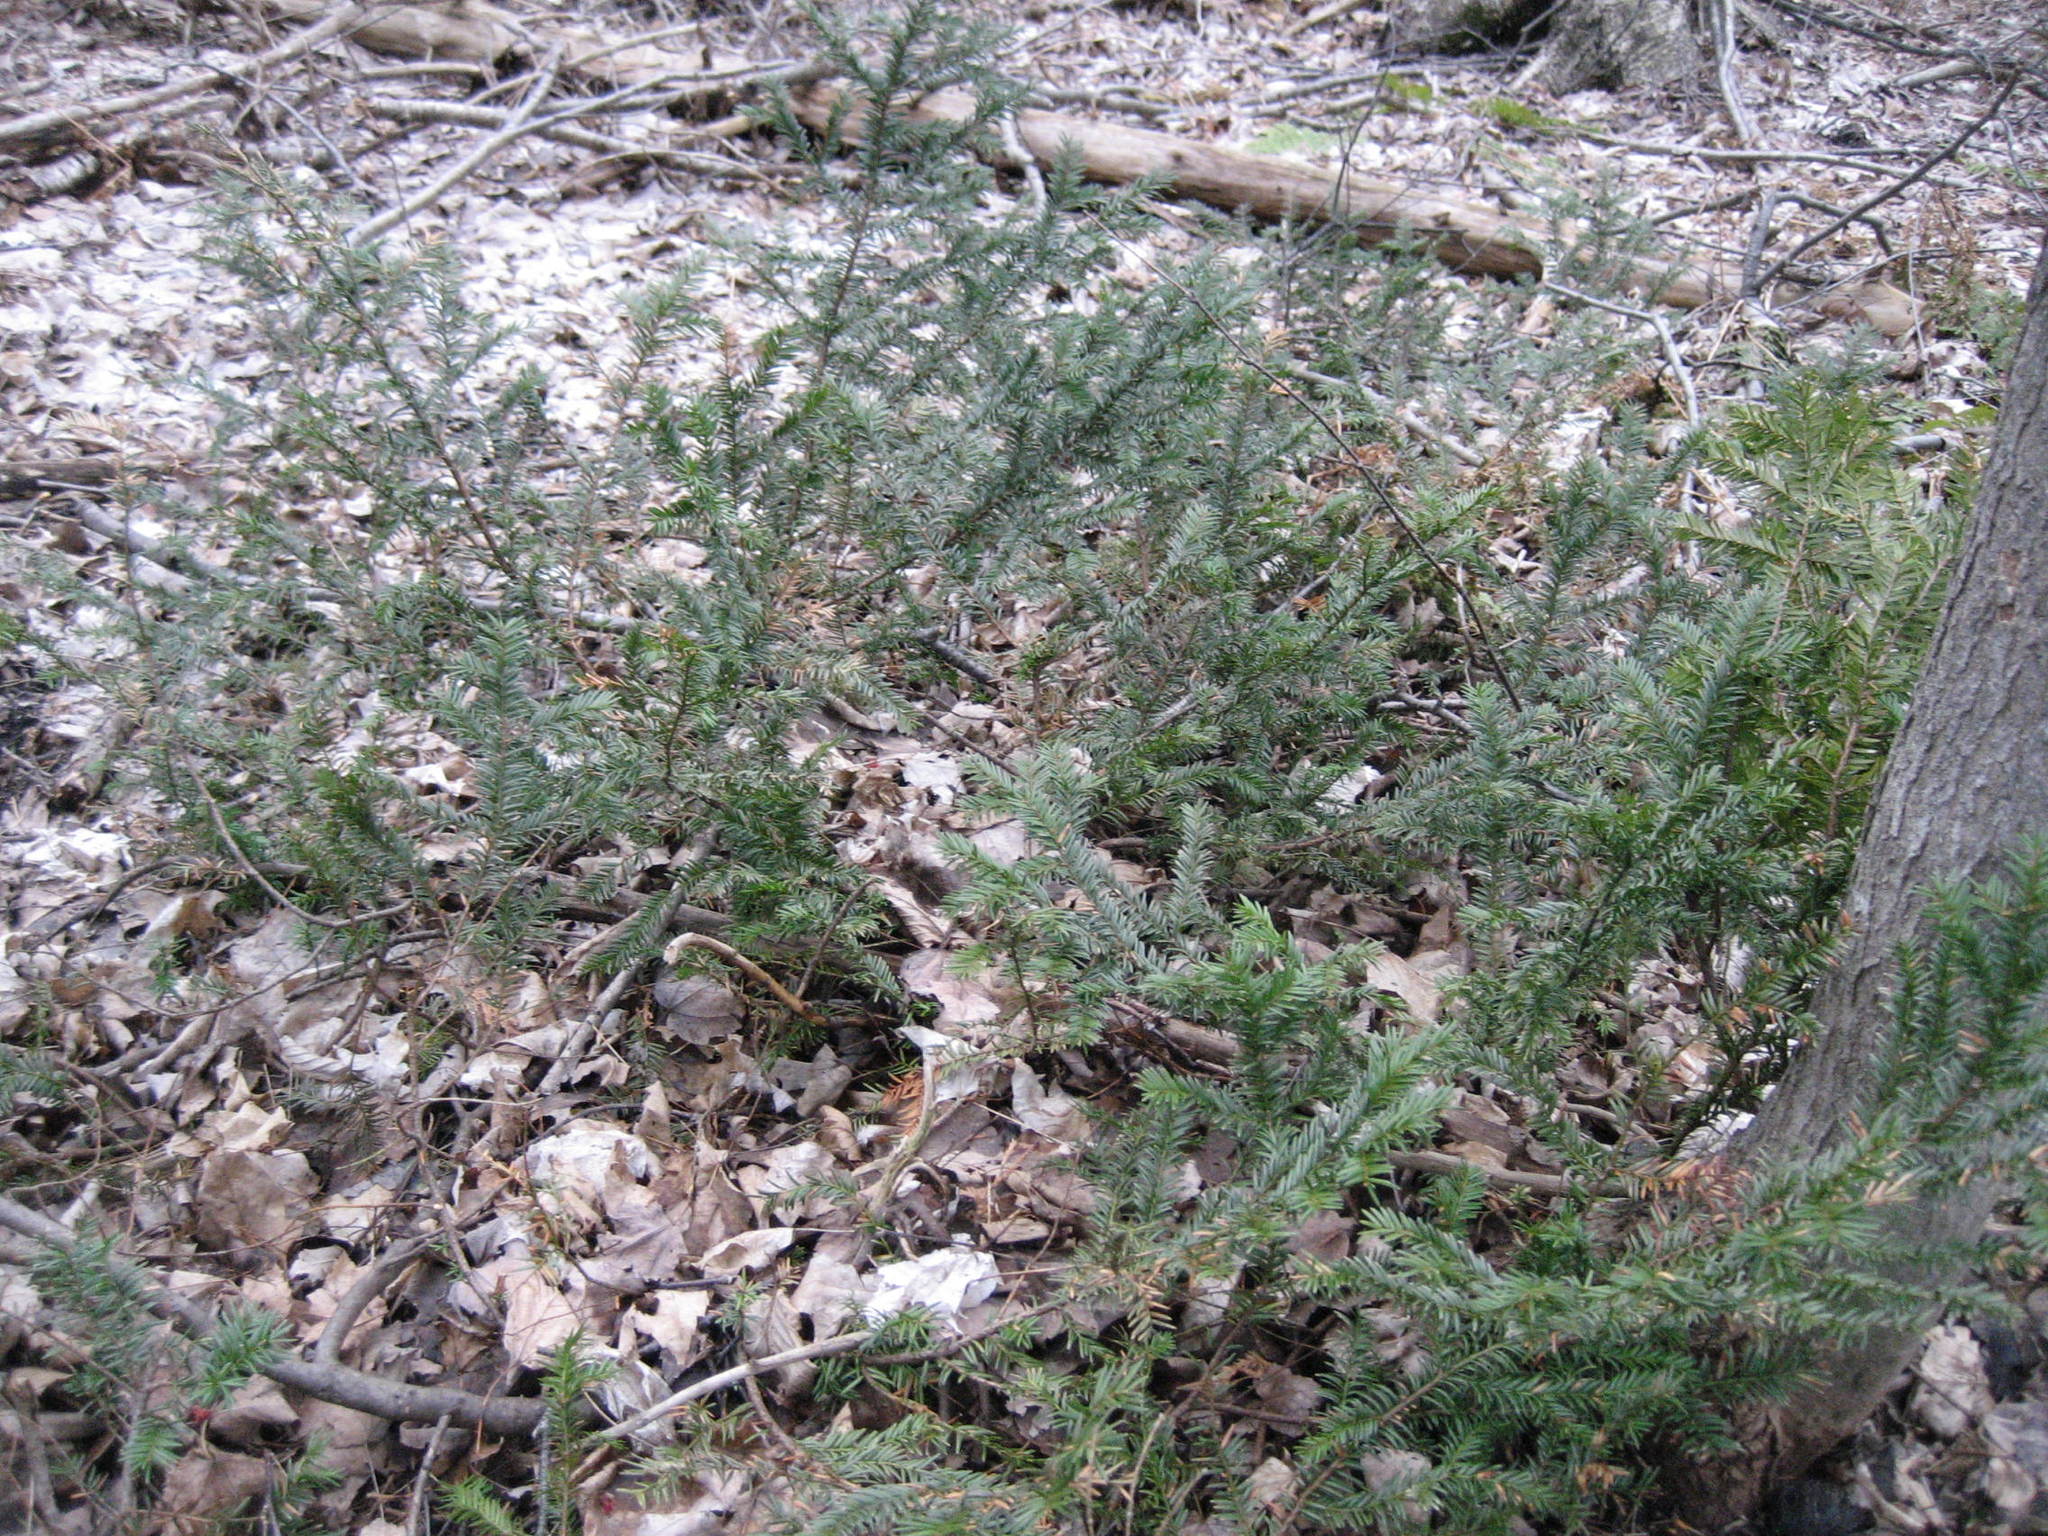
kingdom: Plantae
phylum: Tracheophyta
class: Pinopsida
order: Pinales
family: Taxaceae
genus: Taxus
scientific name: Taxus canadensis
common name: American yew
